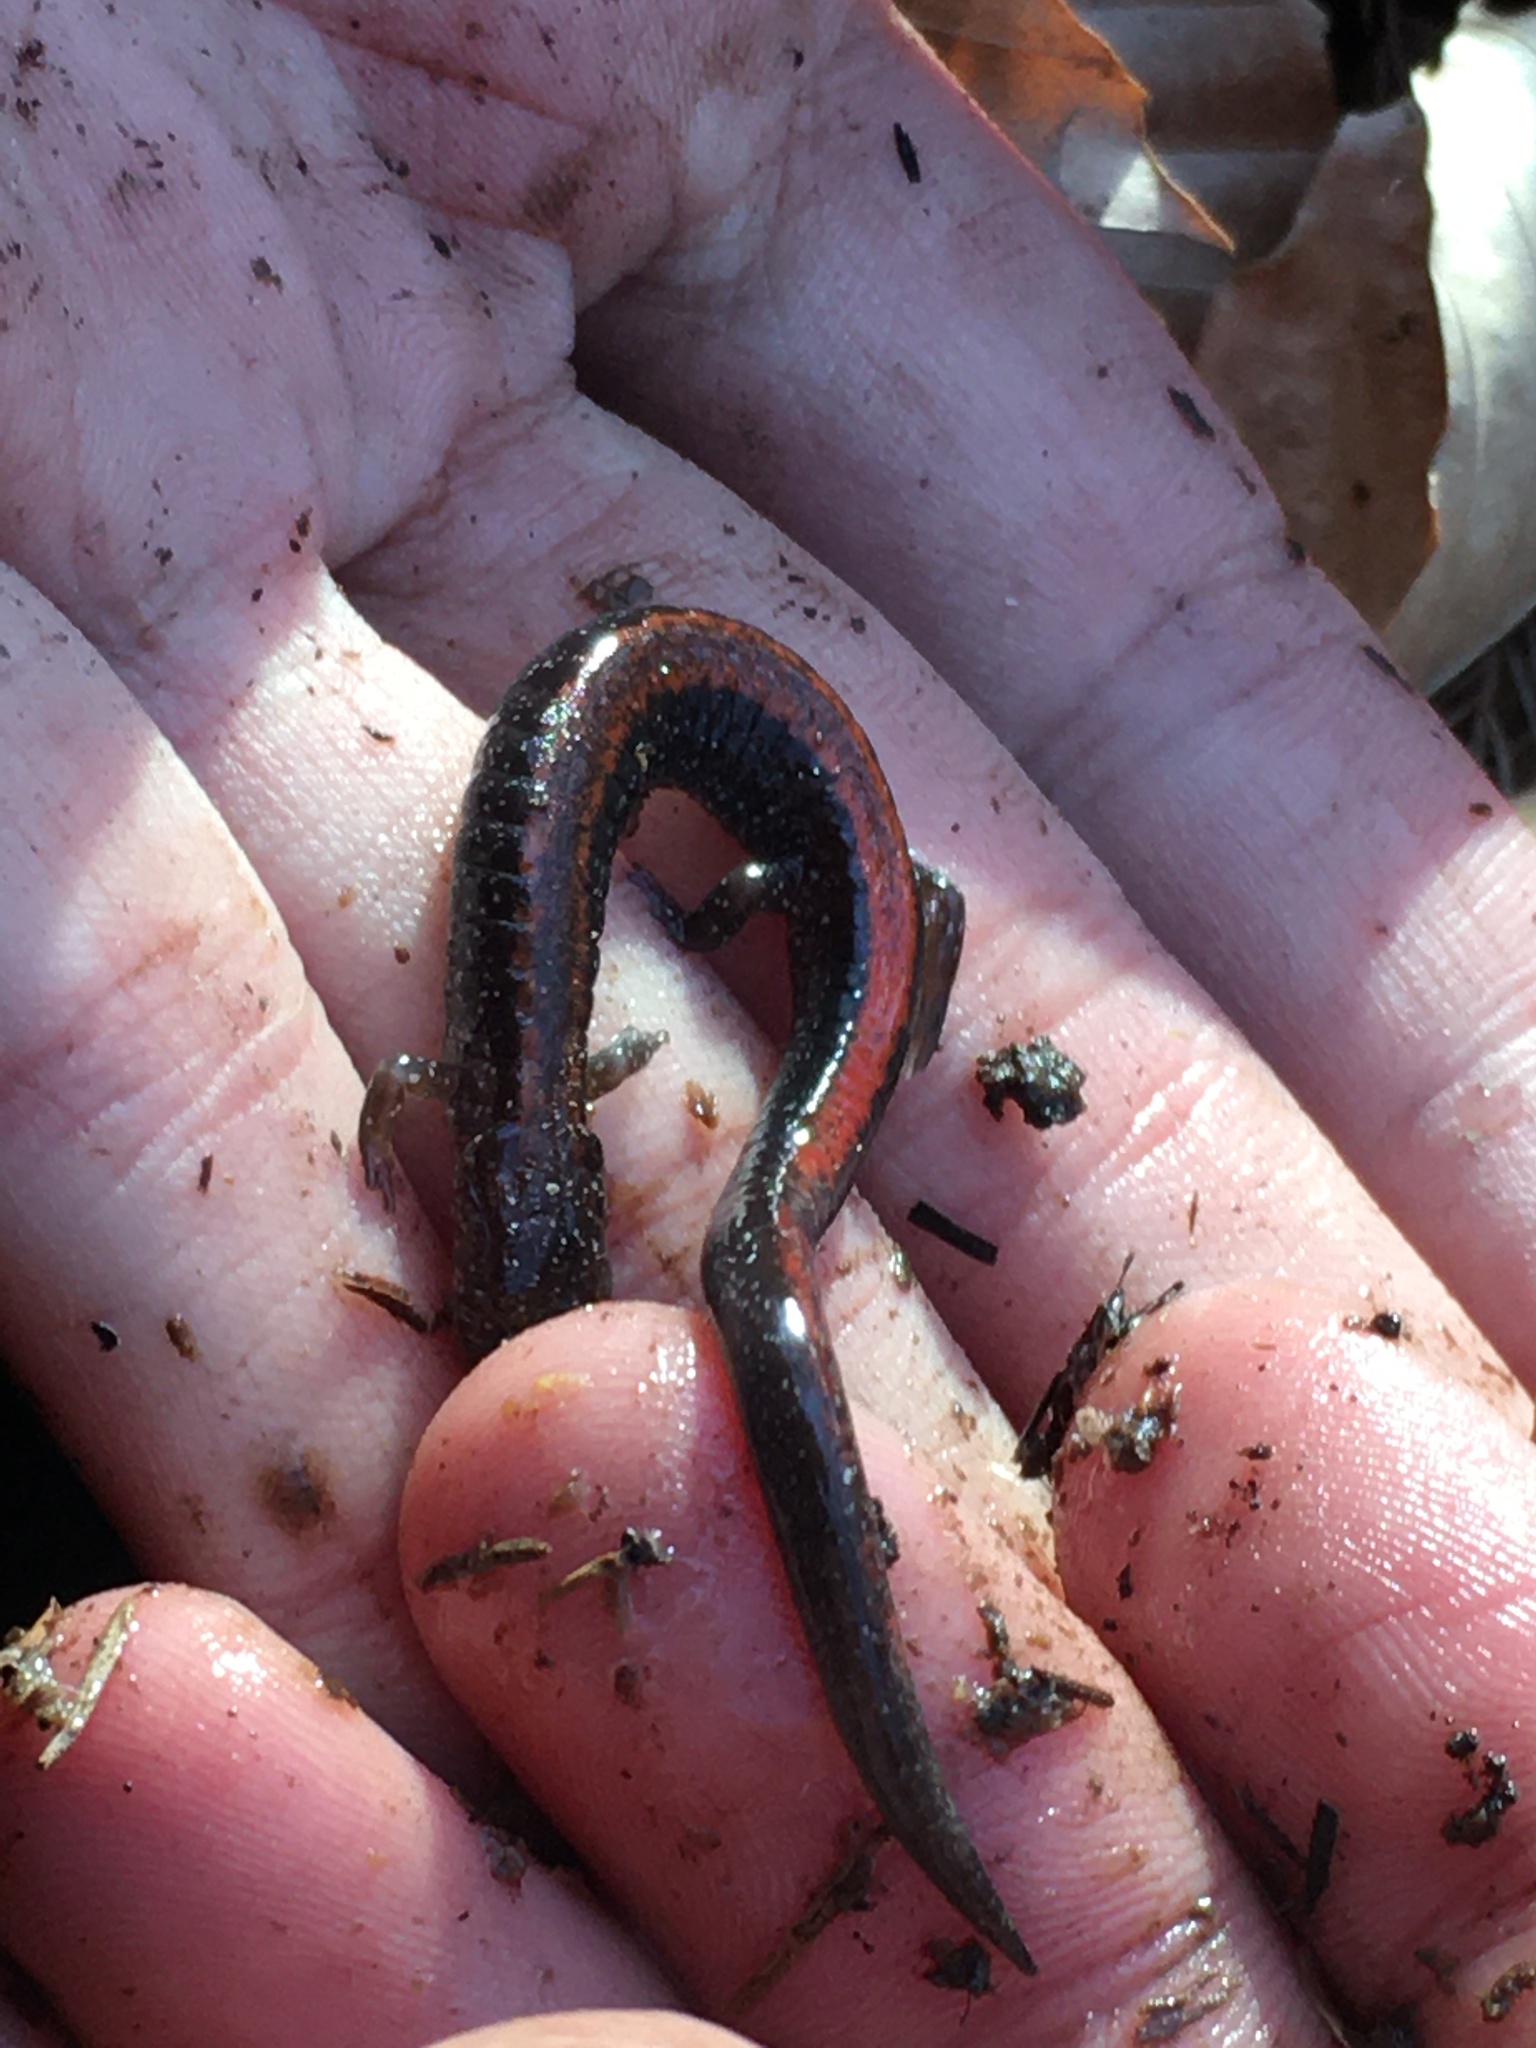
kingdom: Animalia
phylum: Chordata
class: Amphibia
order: Caudata
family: Plethodontidae
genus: Plethodon
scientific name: Plethodon cinereus
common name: Redback salamander
